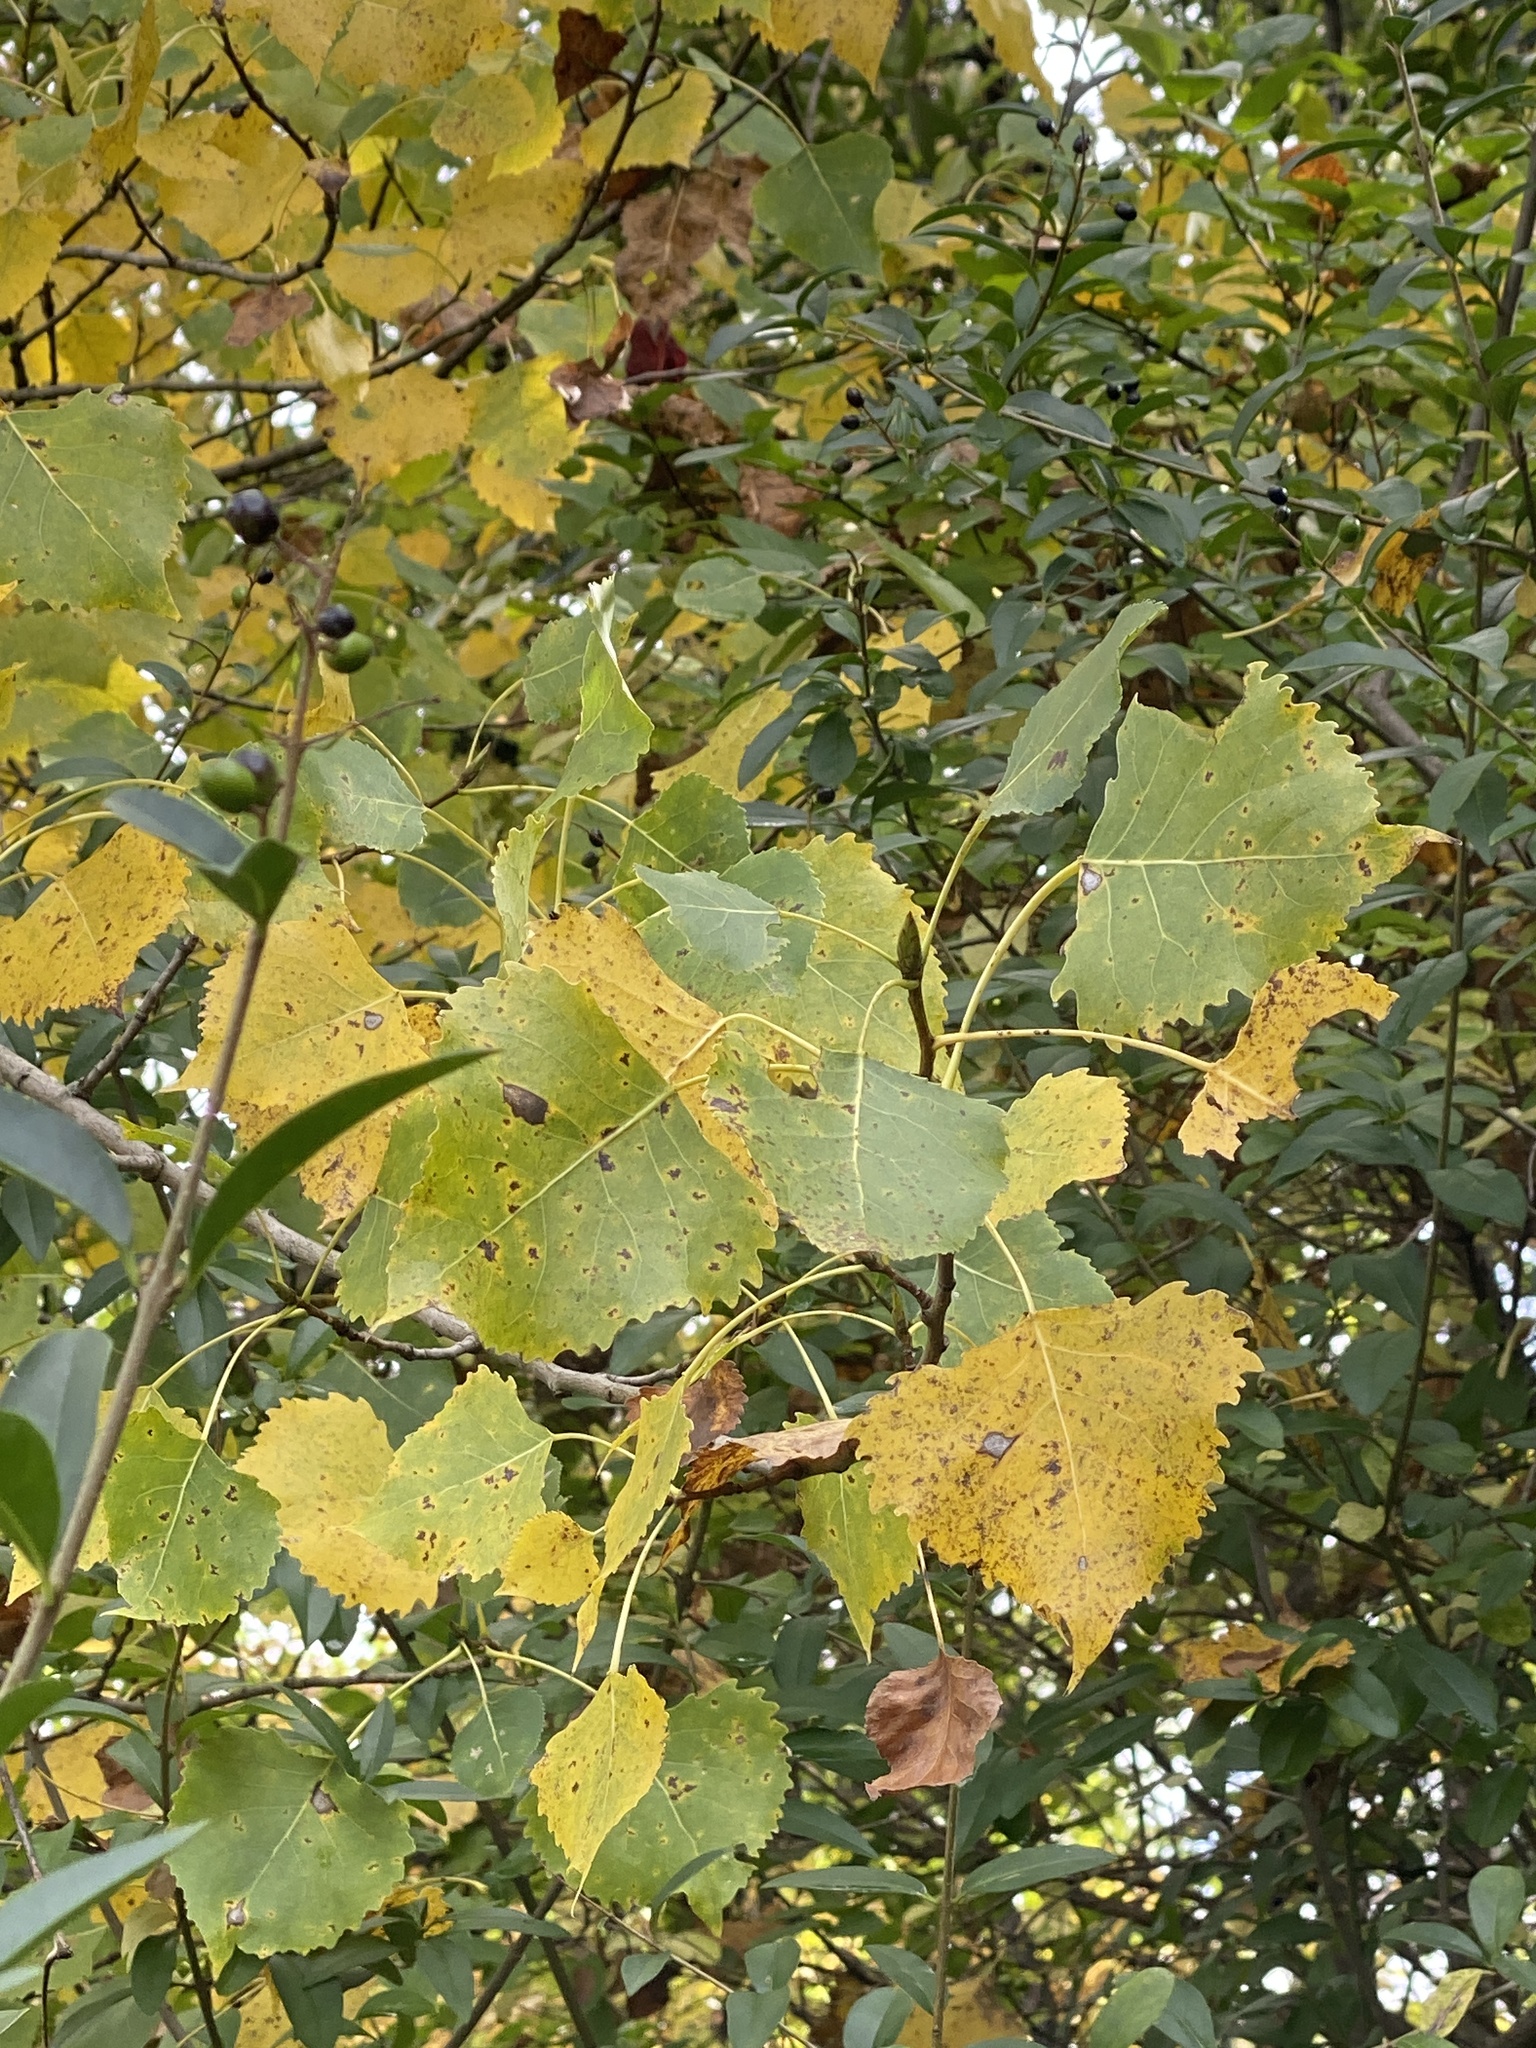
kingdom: Plantae
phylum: Tracheophyta
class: Magnoliopsida
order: Malpighiales
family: Salicaceae
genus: Populus
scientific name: Populus deltoides
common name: Eastern cottonwood
